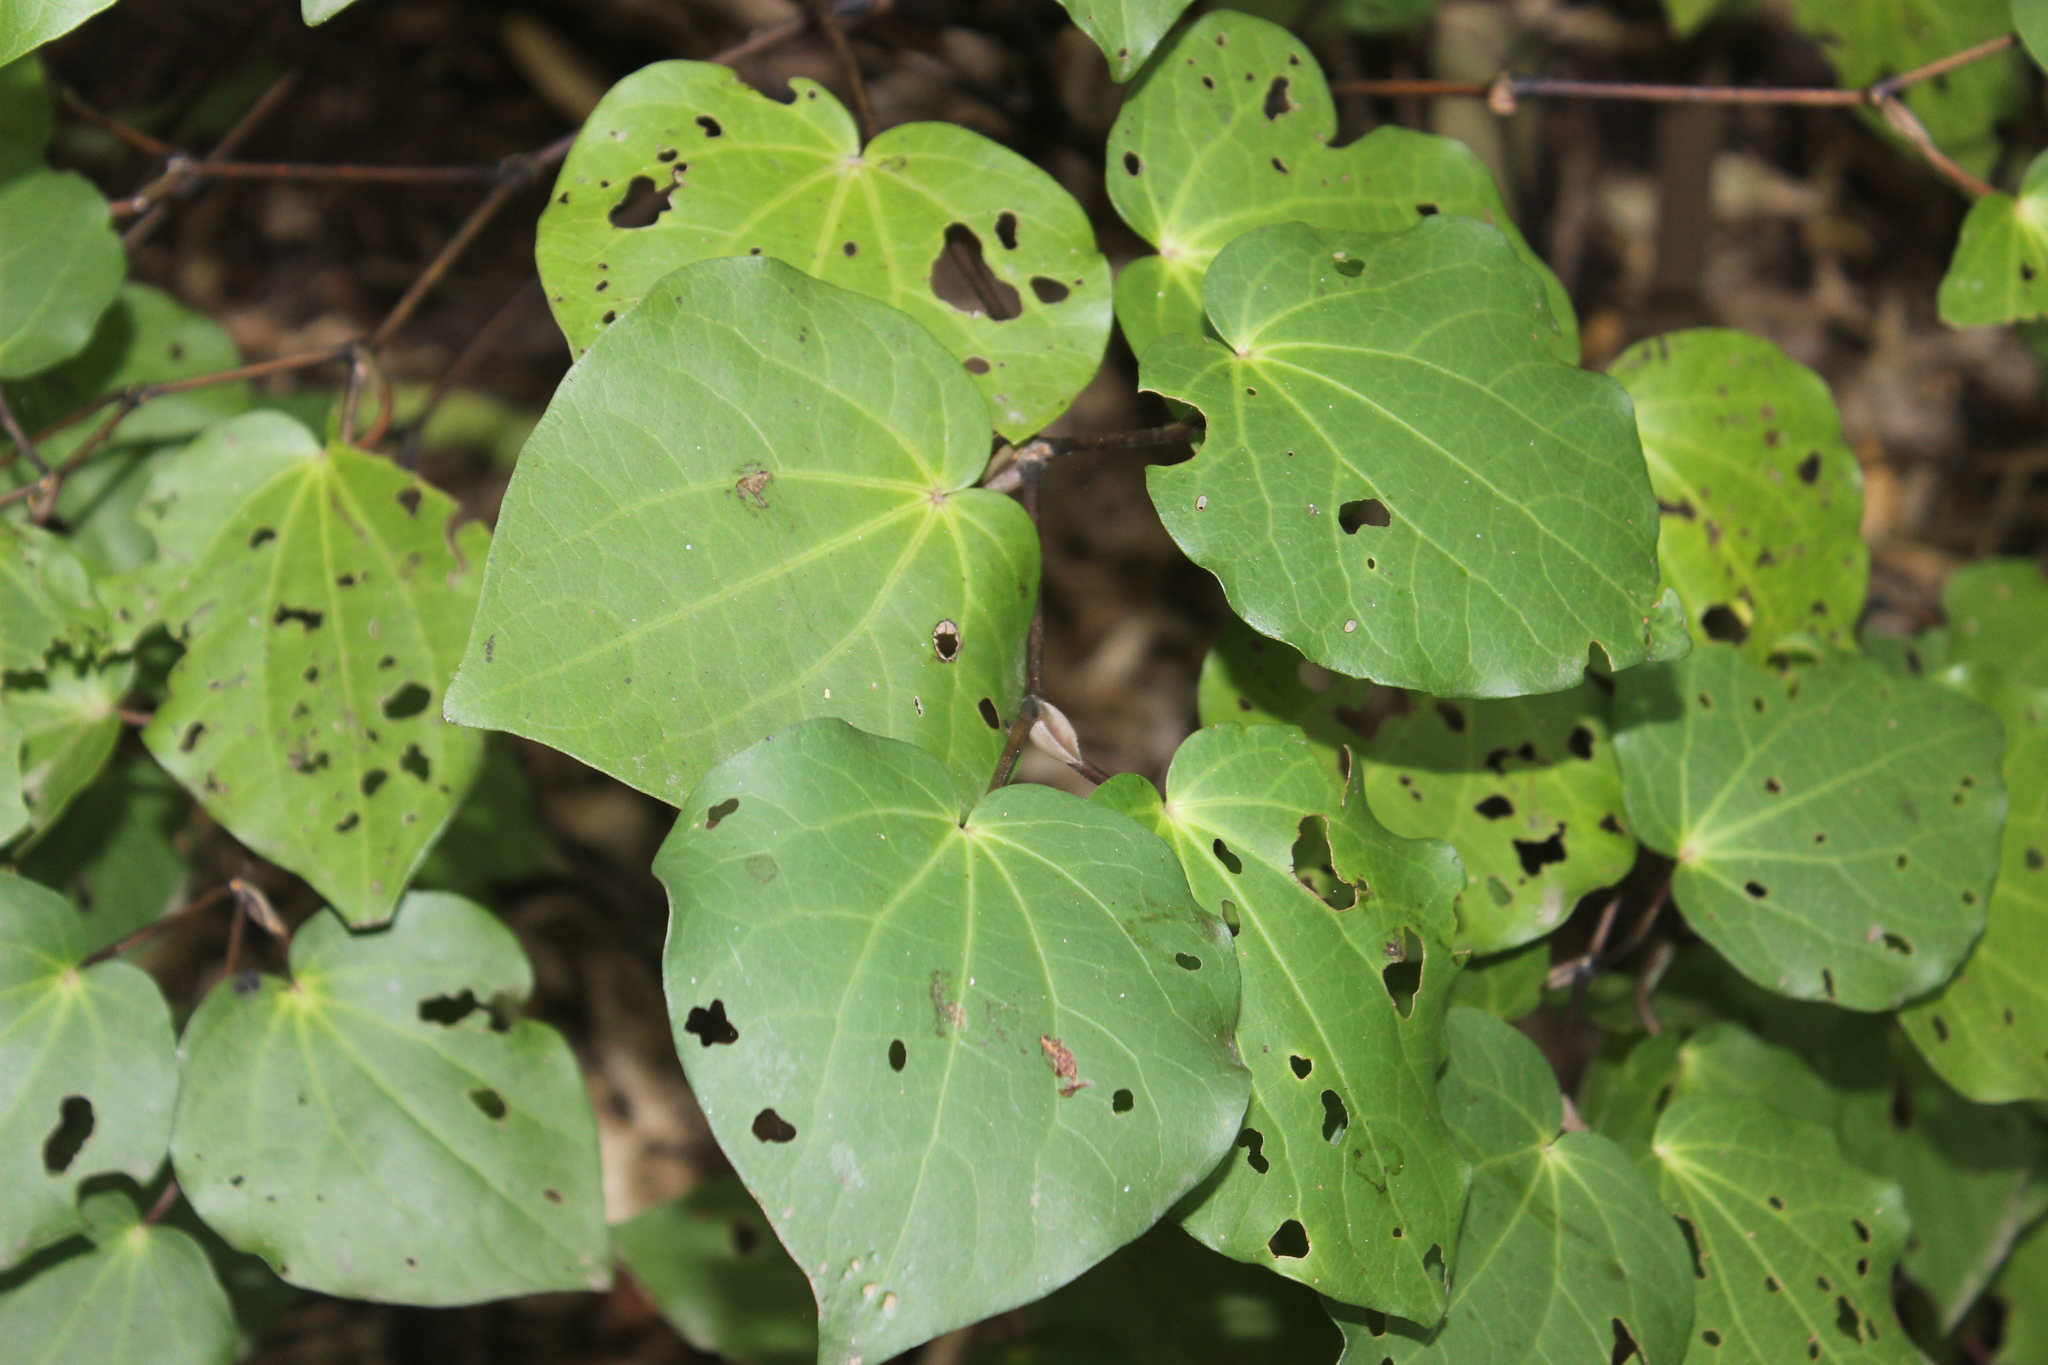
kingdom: Plantae
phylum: Tracheophyta
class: Magnoliopsida
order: Piperales
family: Piperaceae
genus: Macropiper
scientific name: Macropiper excelsum
